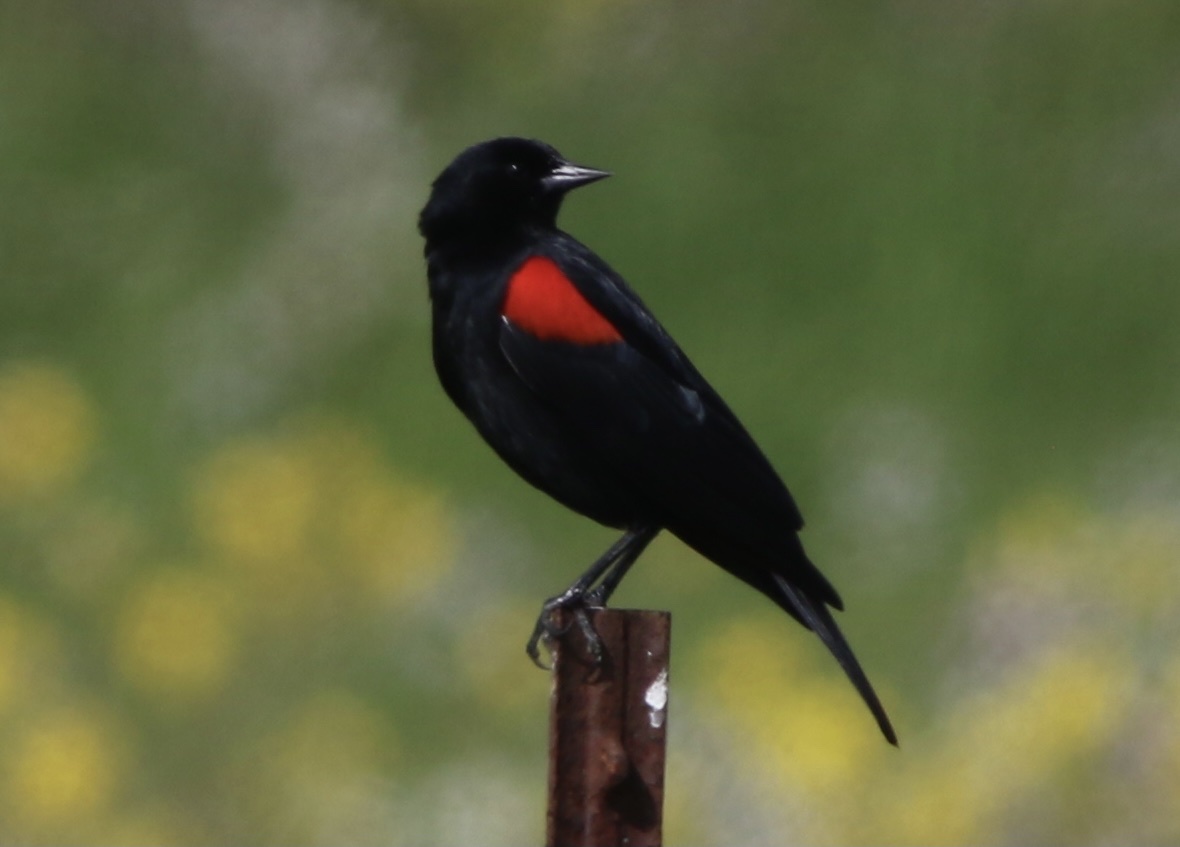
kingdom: Animalia
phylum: Chordata
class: Aves
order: Passeriformes
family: Icteridae
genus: Agelaius
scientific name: Agelaius phoeniceus
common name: Red-winged blackbird
